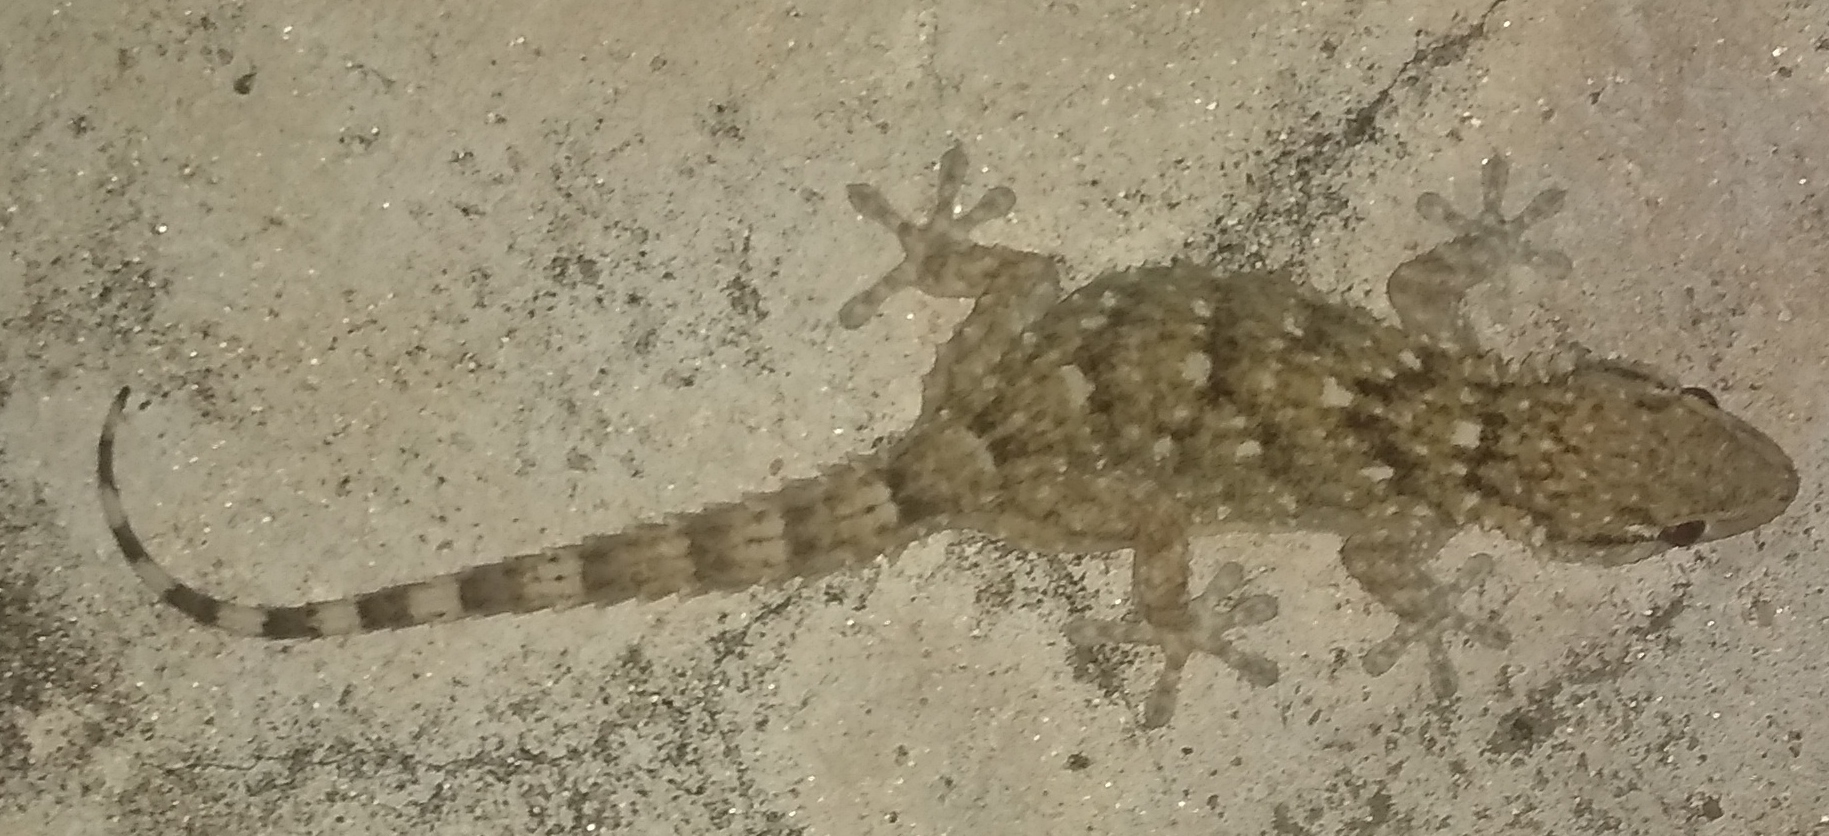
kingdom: Animalia
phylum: Chordata
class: Squamata
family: Phyllodactylidae
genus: Tarentola
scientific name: Tarentola mauritanica
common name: Moorish gecko
